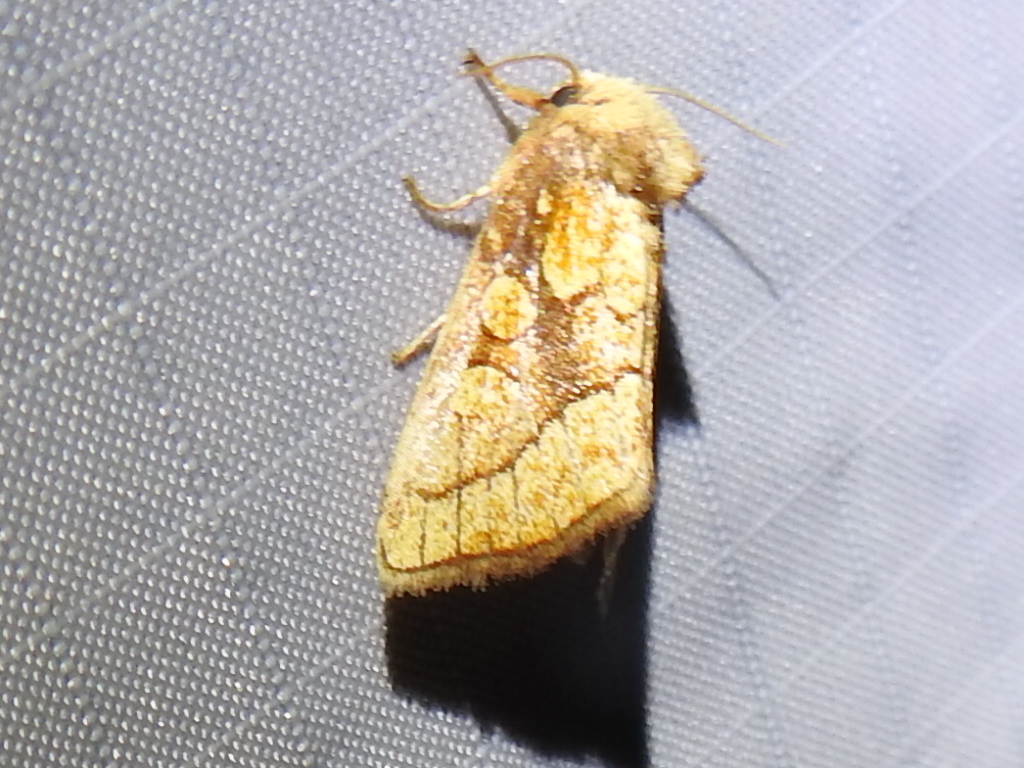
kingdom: Animalia
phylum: Arthropoda
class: Insecta
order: Lepidoptera
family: Noctuidae
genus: Nocloa
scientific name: Nocloa alcandra
